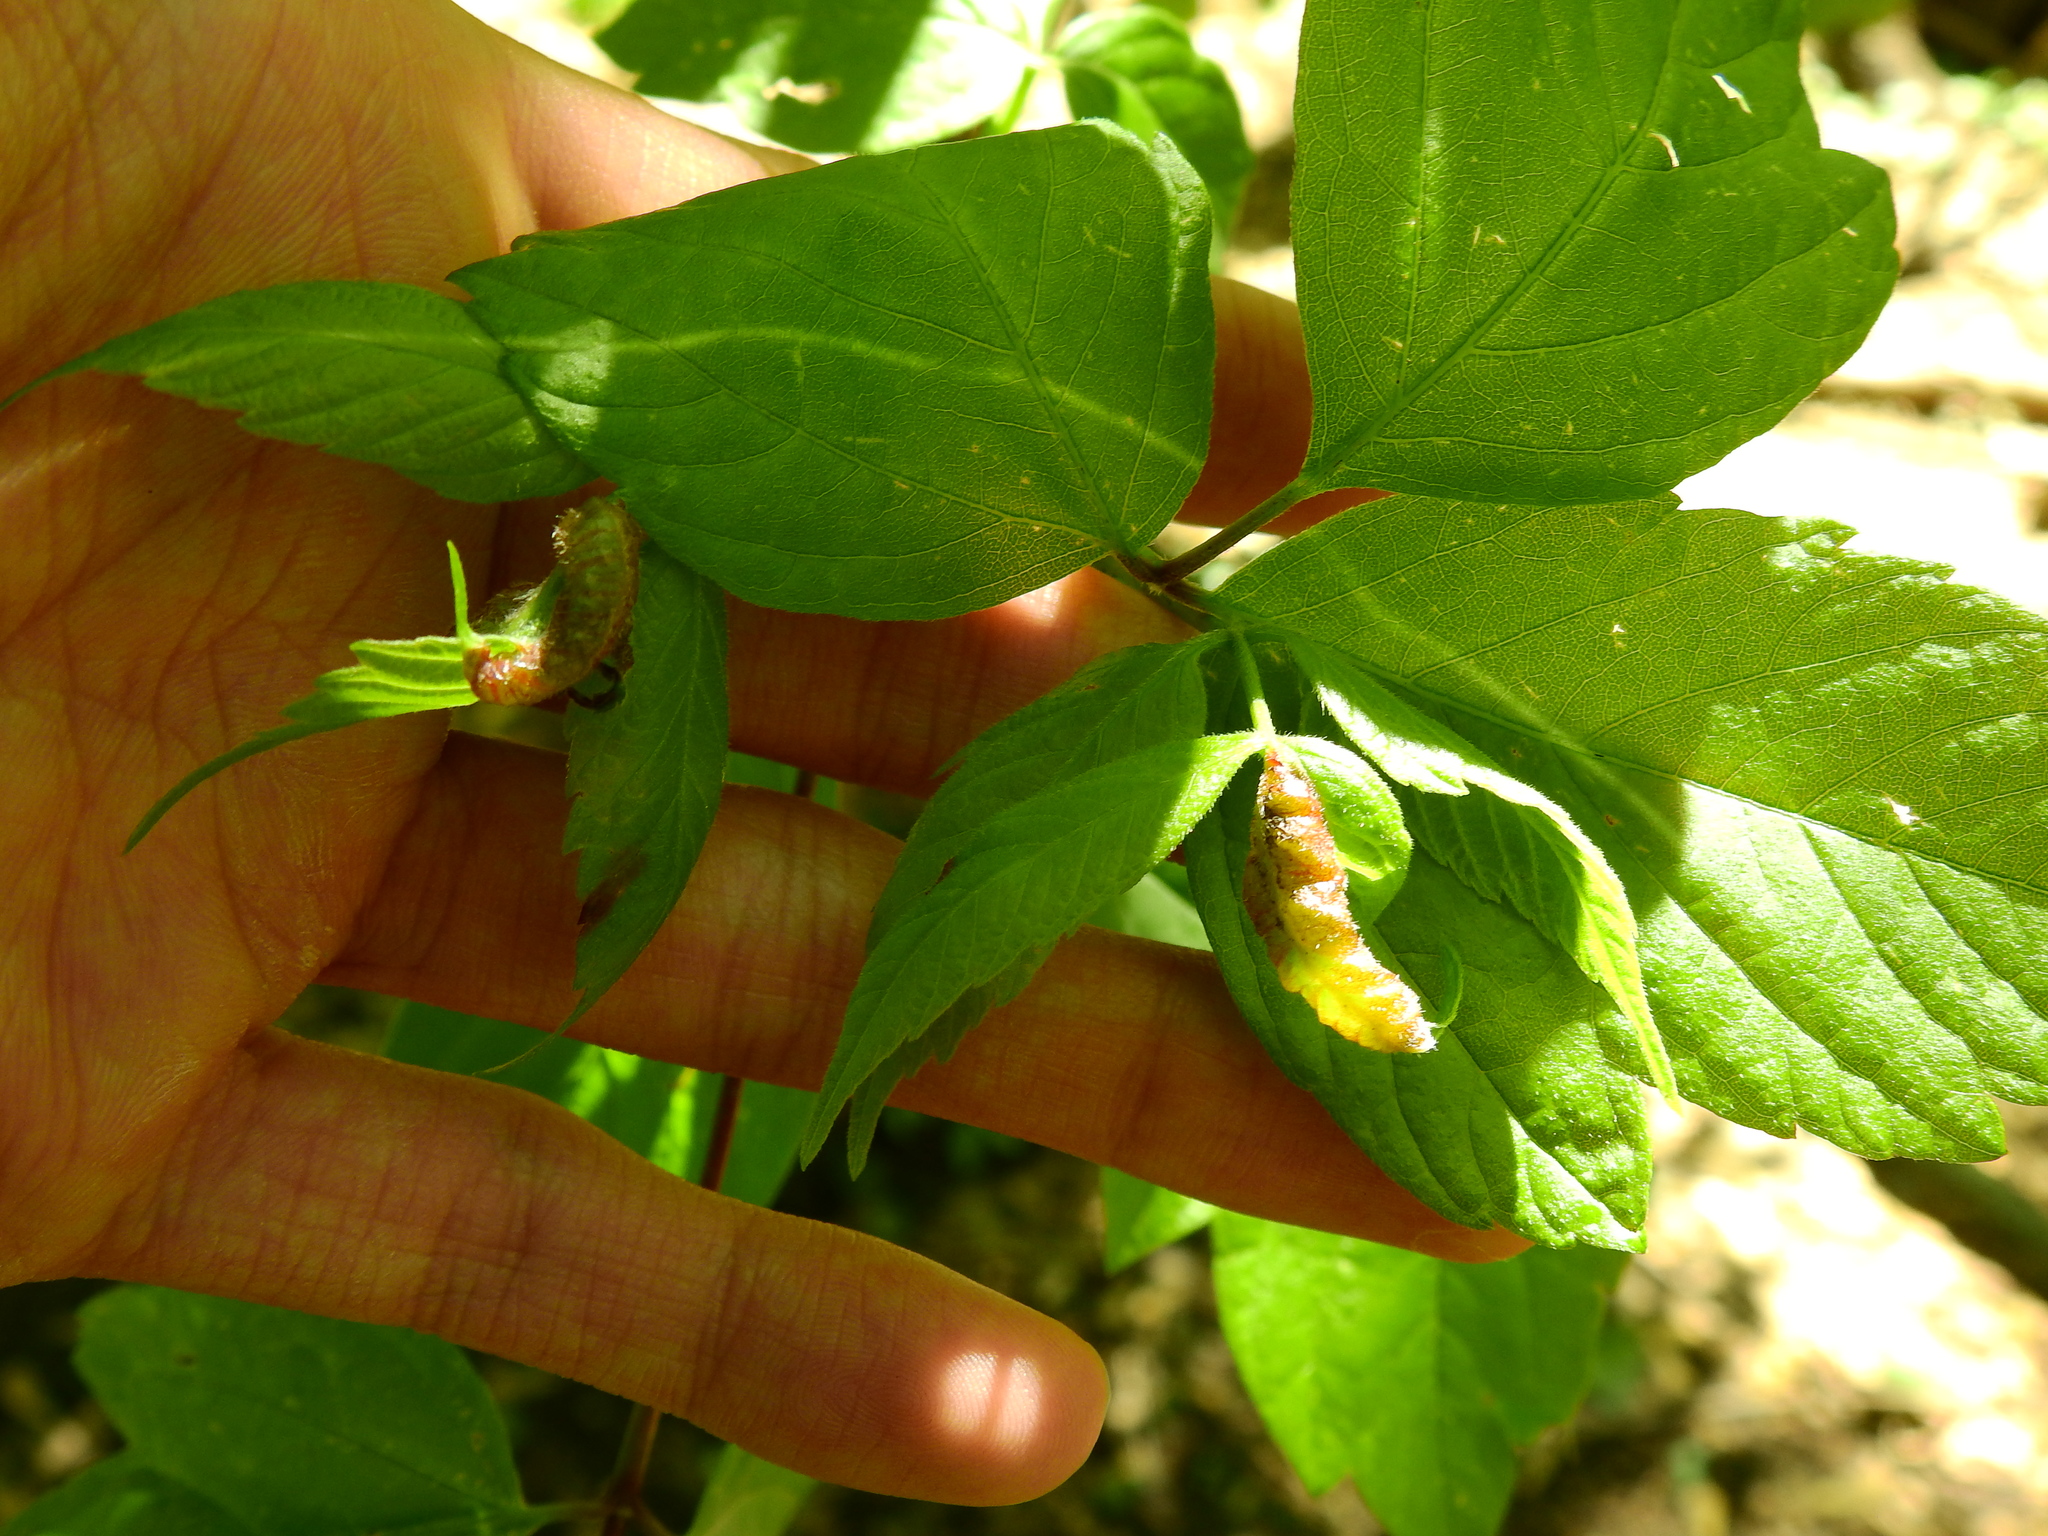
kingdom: Animalia
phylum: Arthropoda
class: Insecta
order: Diptera
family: Cecidomyiidae
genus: Contarinia
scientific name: Contarinia negundinis
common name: Boxelder budgall midge
